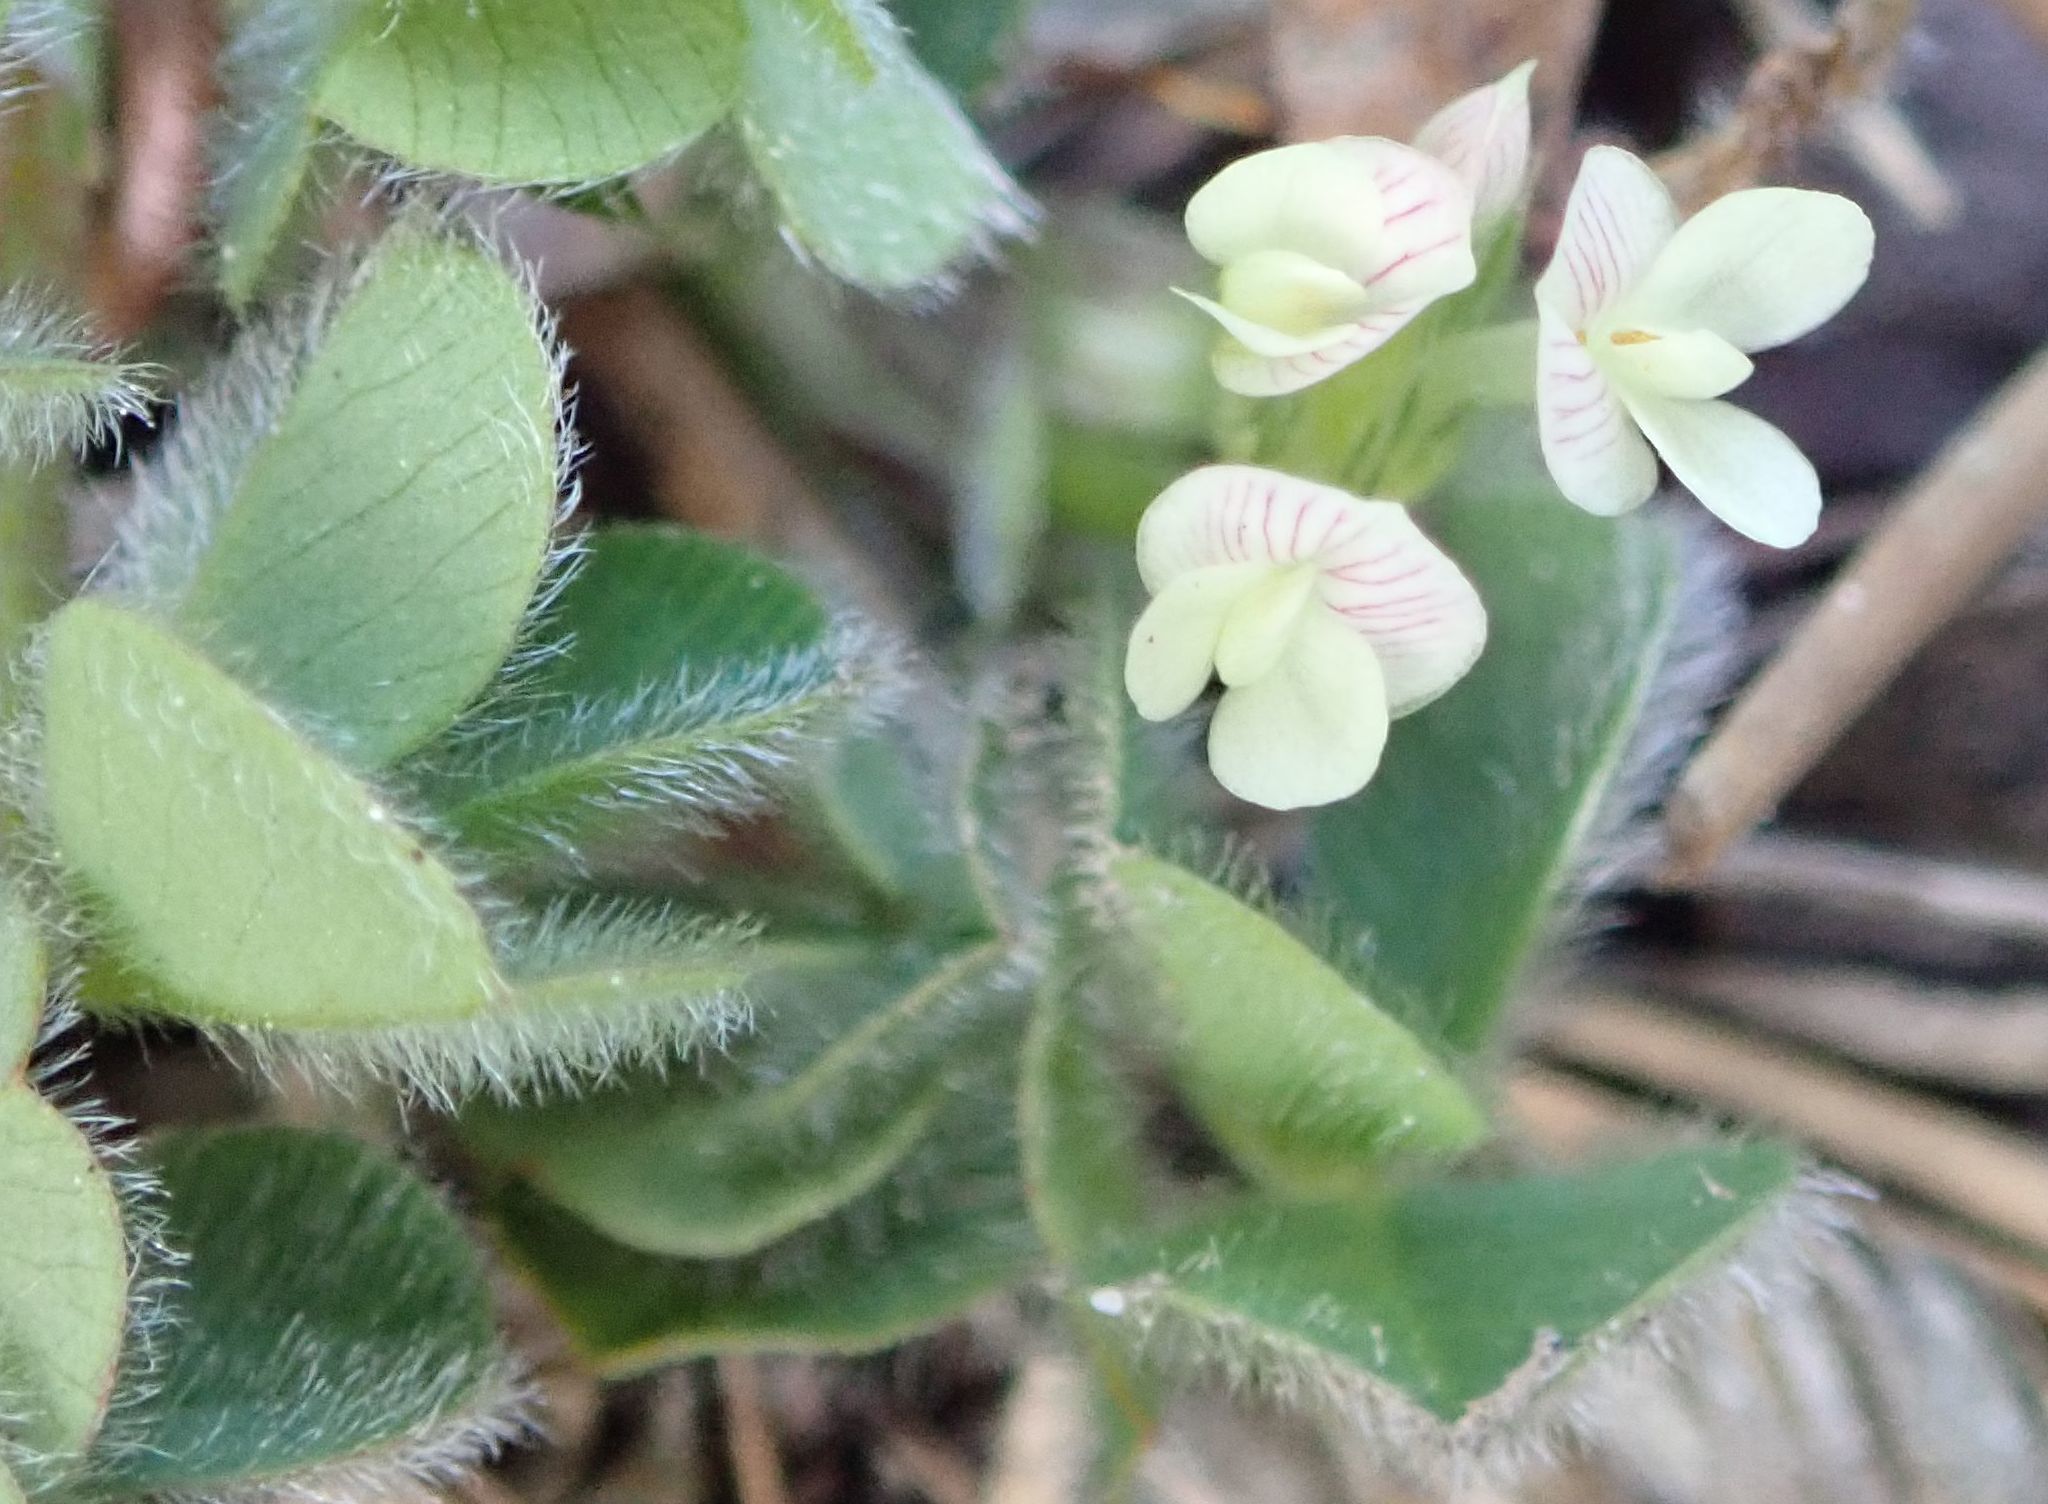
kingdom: Plantae
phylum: Tracheophyta
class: Magnoliopsida
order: Fabales
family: Fabaceae
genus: Trifolium
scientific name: Trifolium subterraneum
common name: Subterranean clover
